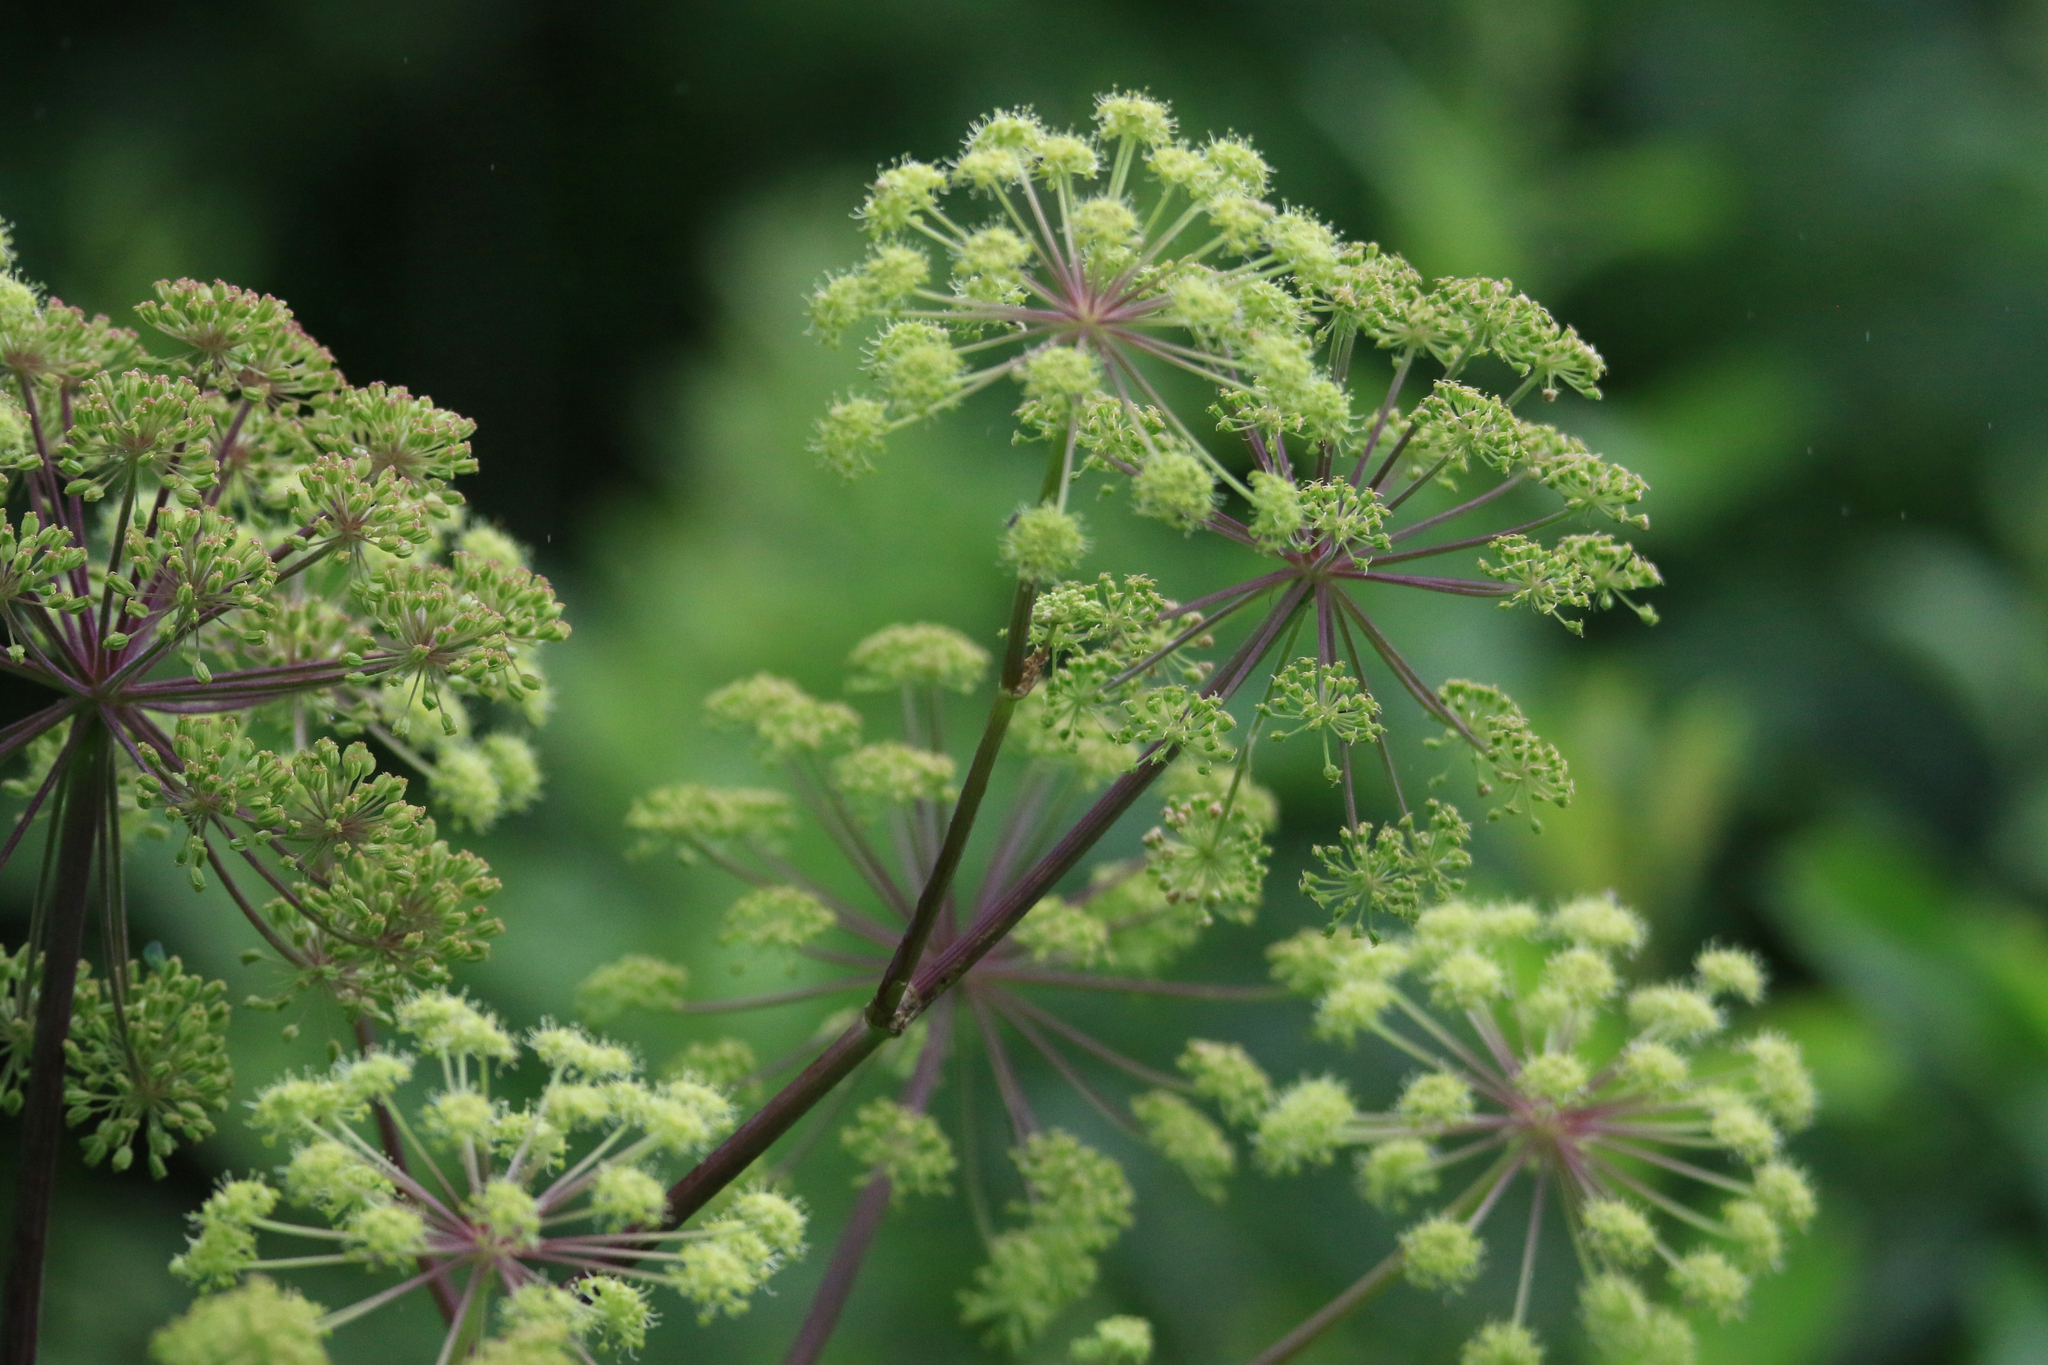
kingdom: Plantae
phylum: Tracheophyta
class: Magnoliopsida
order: Apiales
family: Apiaceae
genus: Angelica
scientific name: Angelica decurrens
